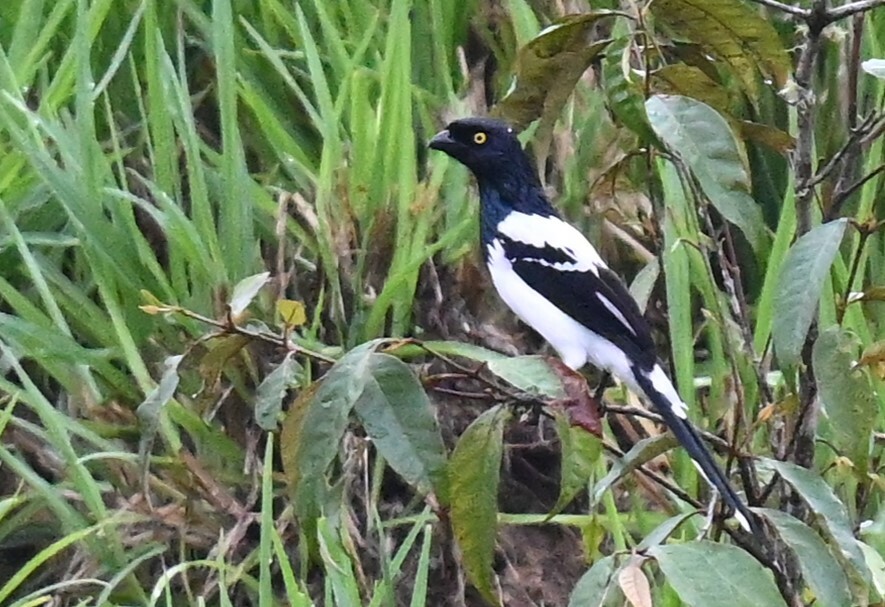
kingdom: Animalia
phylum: Chordata
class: Aves
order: Passeriformes
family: Thraupidae
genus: Cissopis
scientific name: Cissopis leverianus
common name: Magpie tanager
